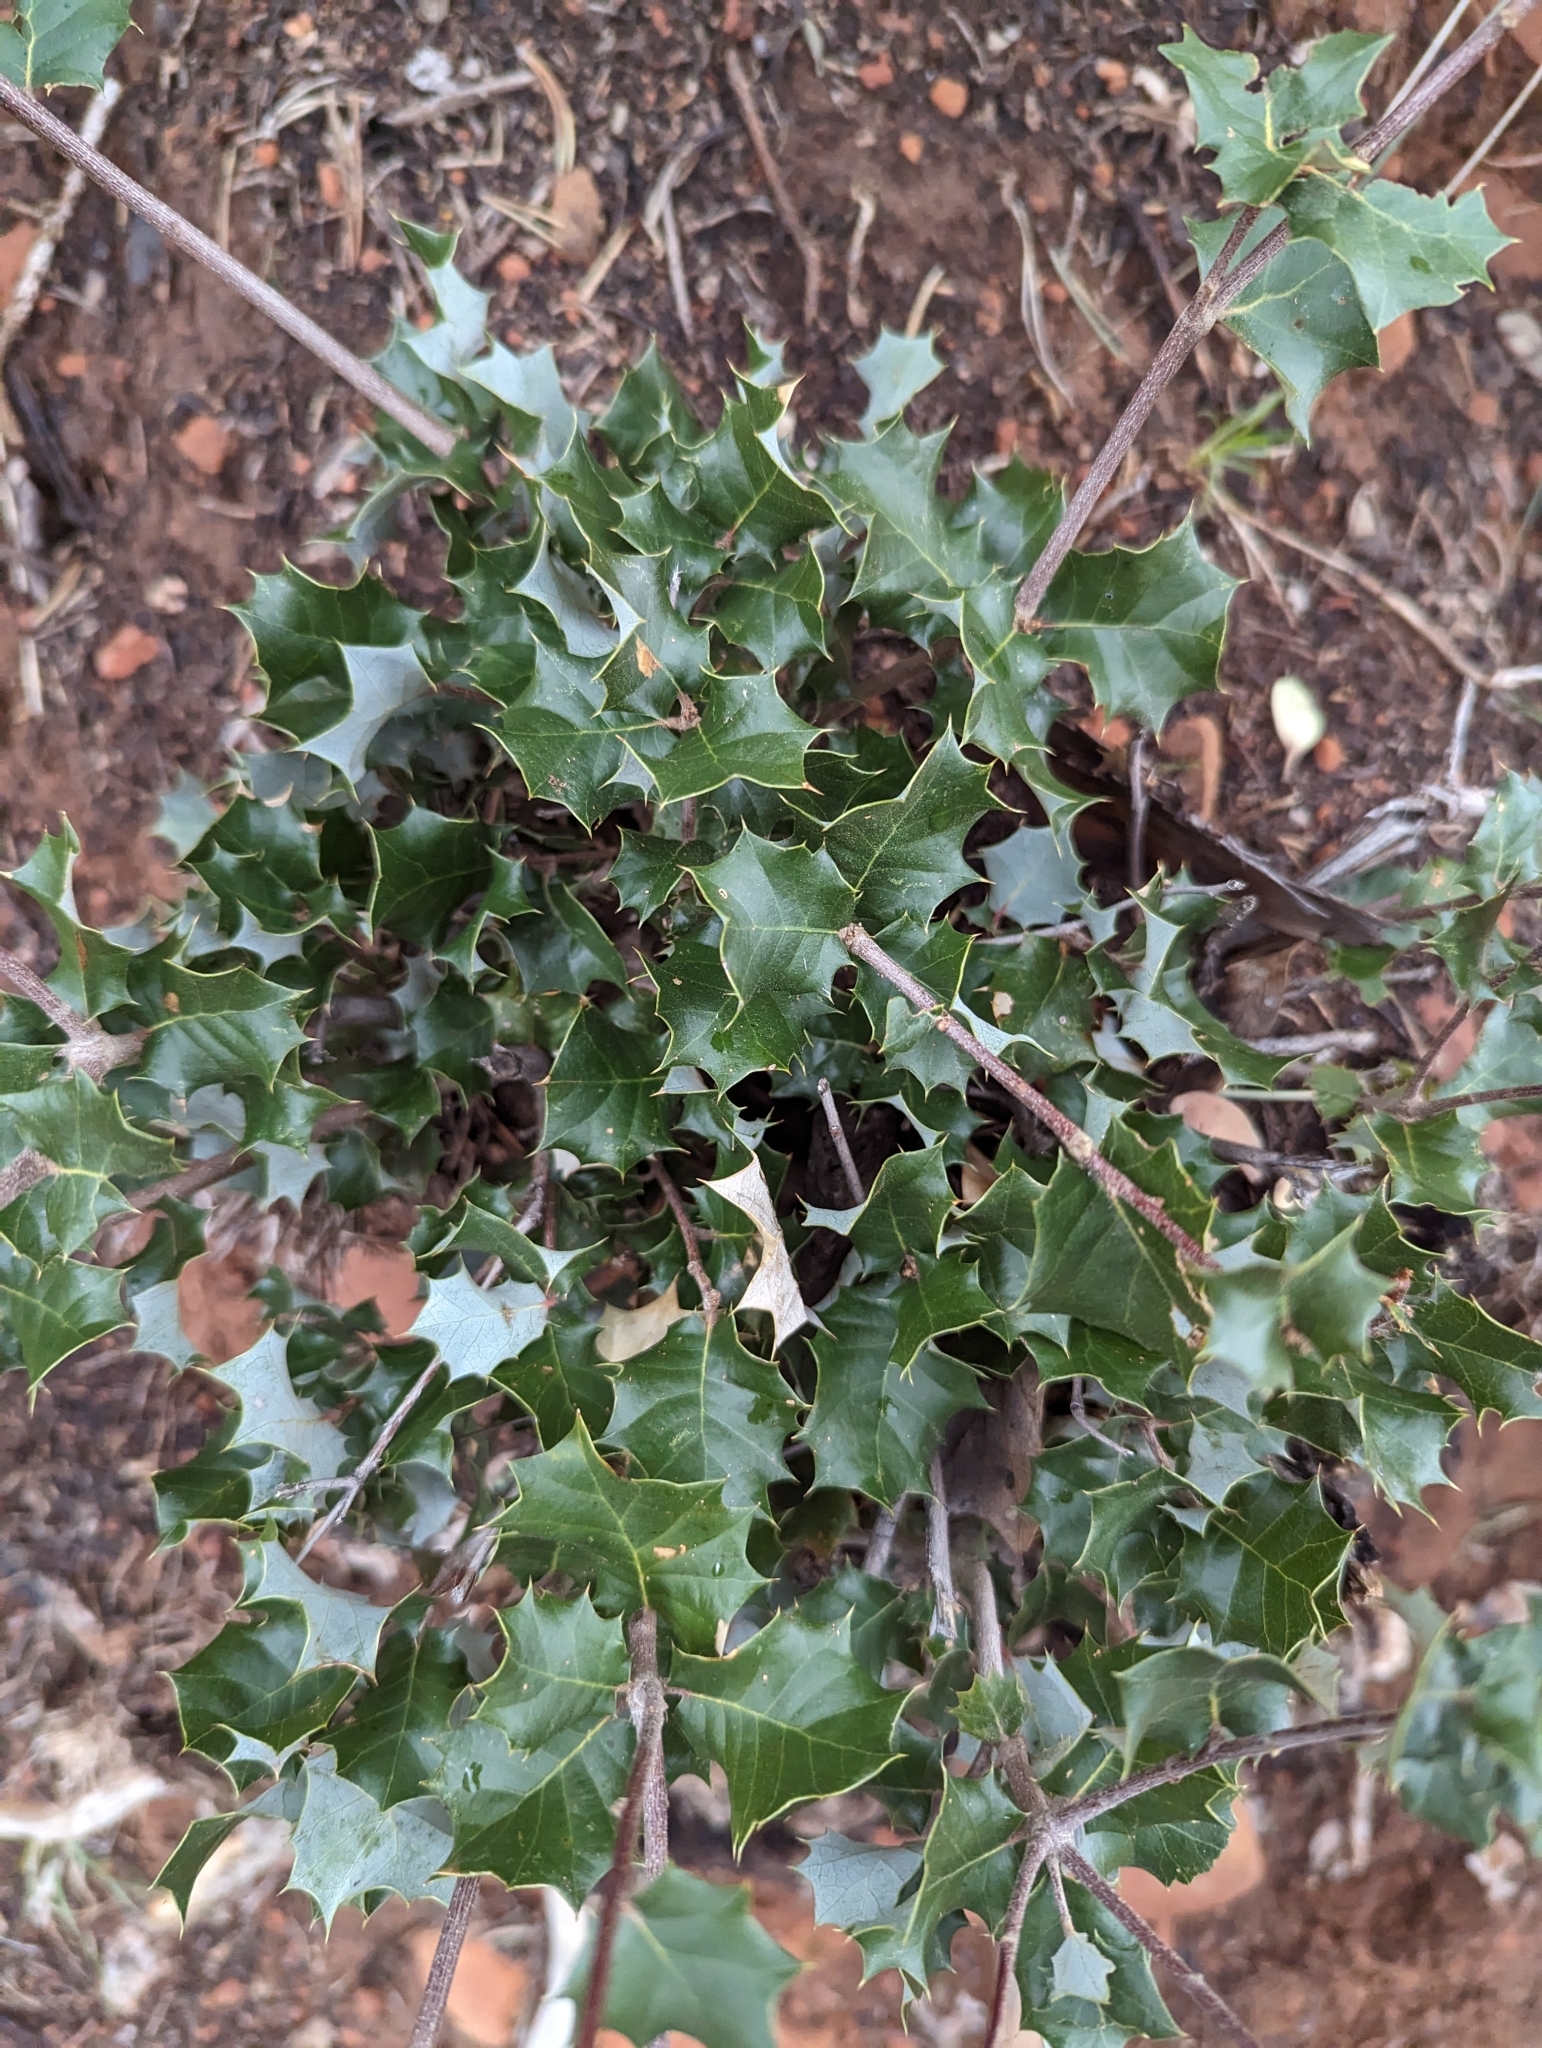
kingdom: Plantae
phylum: Tracheophyta
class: Magnoliopsida
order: Fagales
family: Fagaceae
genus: Quercus
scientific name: Quercus palmeri
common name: Dunn oak
